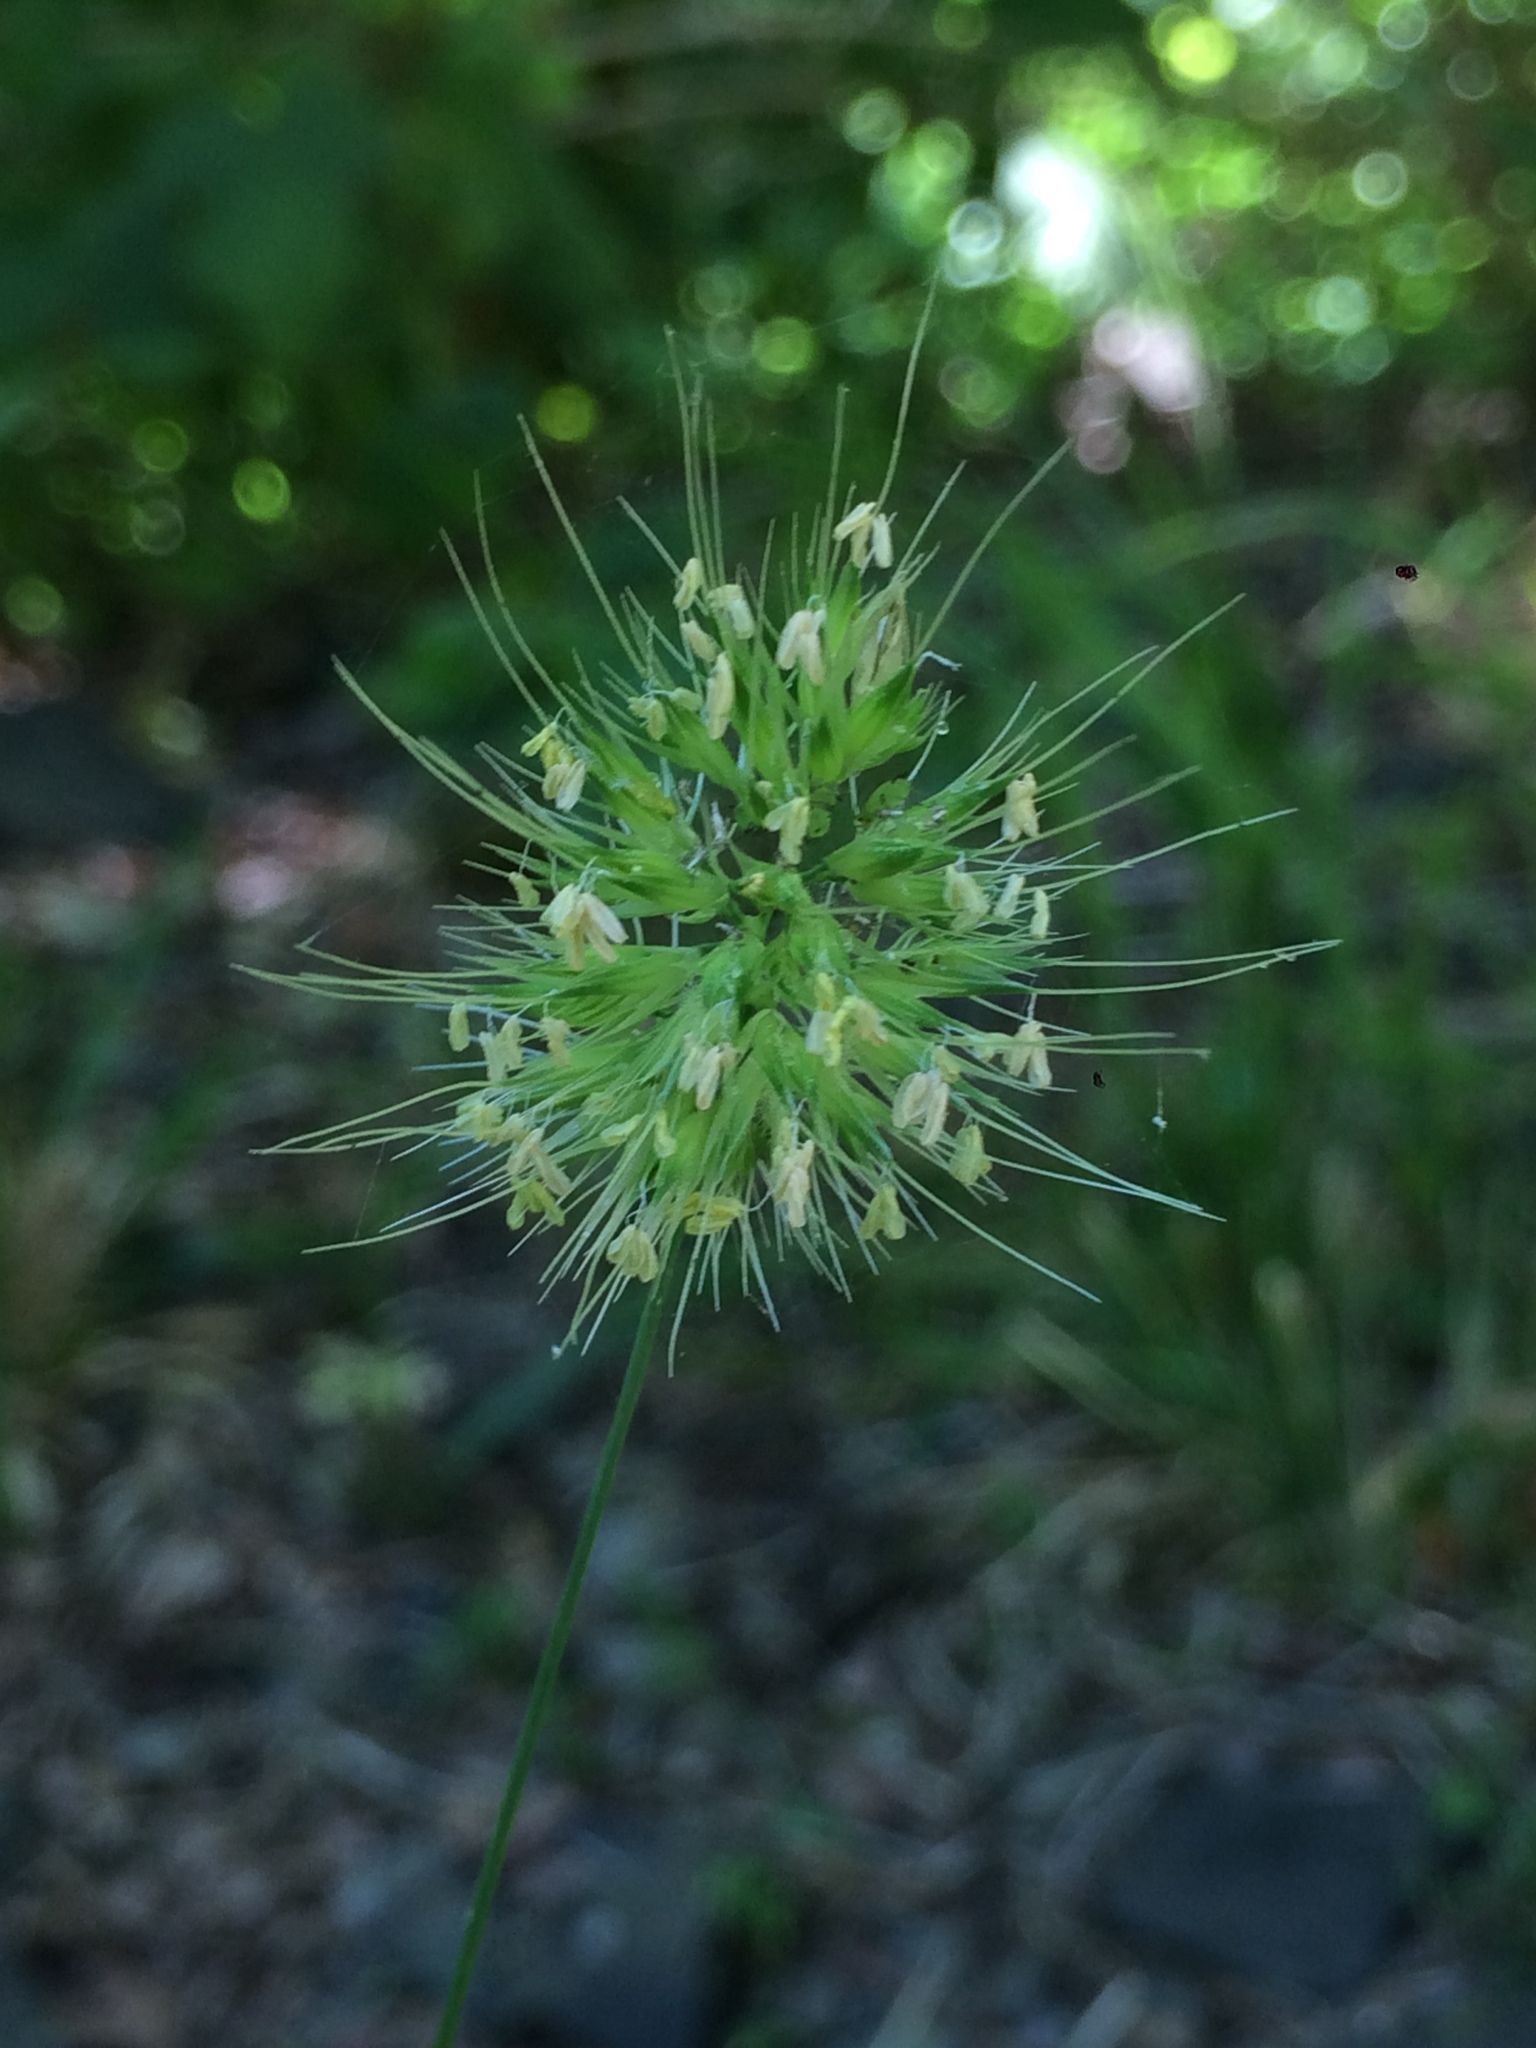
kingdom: Plantae
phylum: Tracheophyta
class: Liliopsida
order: Poales
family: Poaceae
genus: Cynosurus
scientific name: Cynosurus echinatus
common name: Rough dog's-tail
